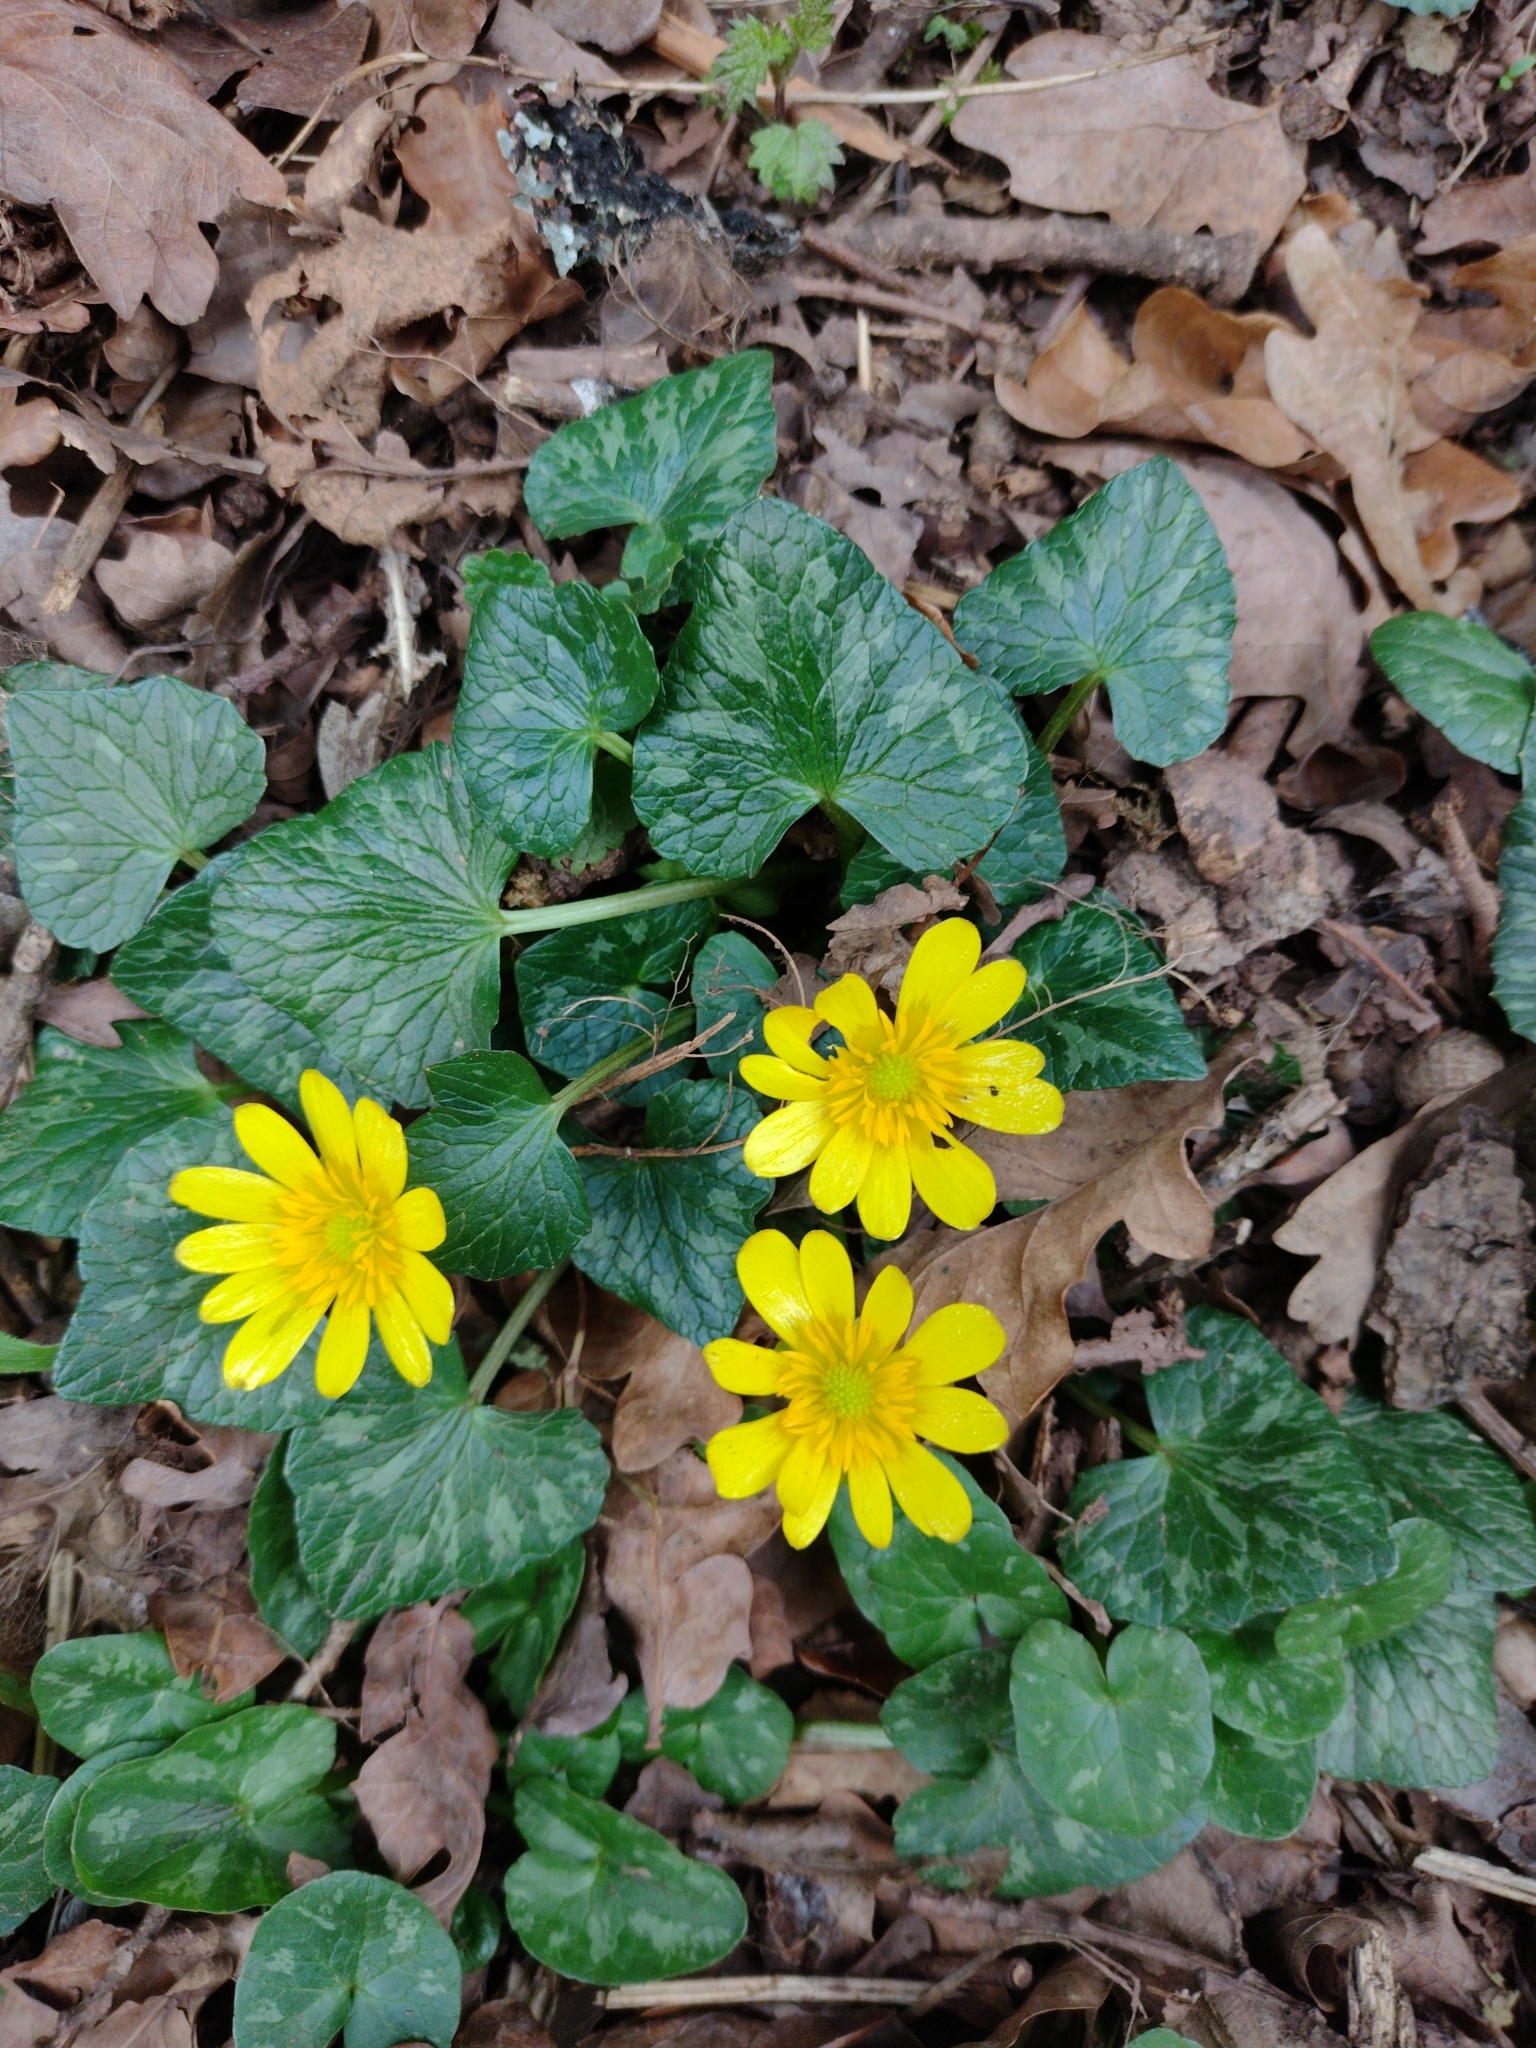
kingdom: Plantae
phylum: Tracheophyta
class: Magnoliopsida
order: Ranunculales
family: Ranunculaceae
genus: Ficaria
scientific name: Ficaria verna
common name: Lesser celandine
